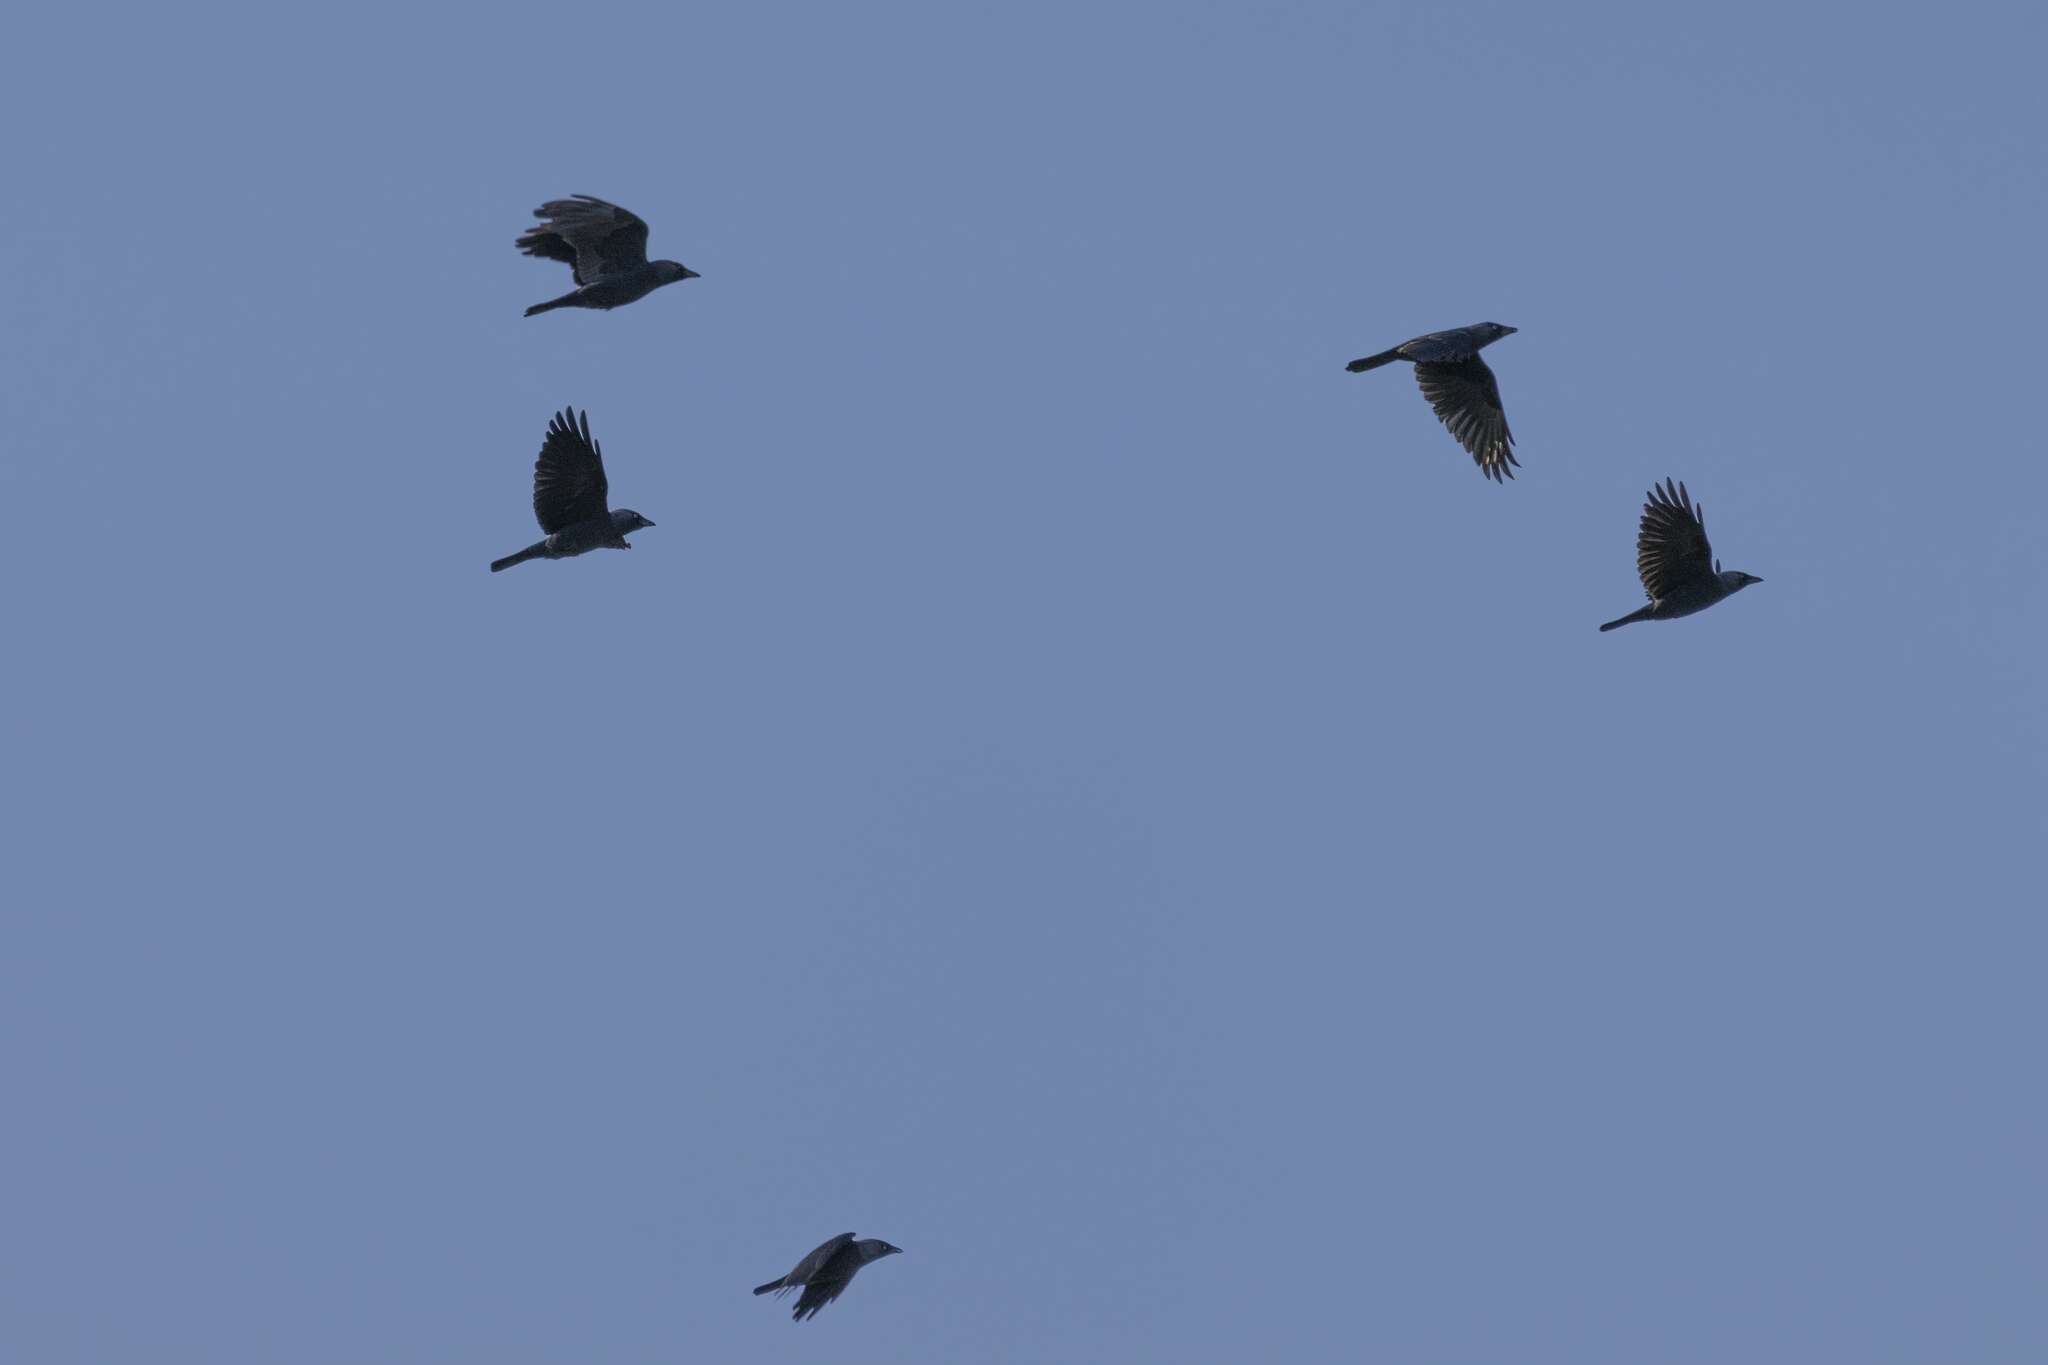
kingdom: Animalia
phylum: Chordata
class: Aves
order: Passeriformes
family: Corvidae
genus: Coloeus
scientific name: Coloeus monedula
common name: Western jackdaw
